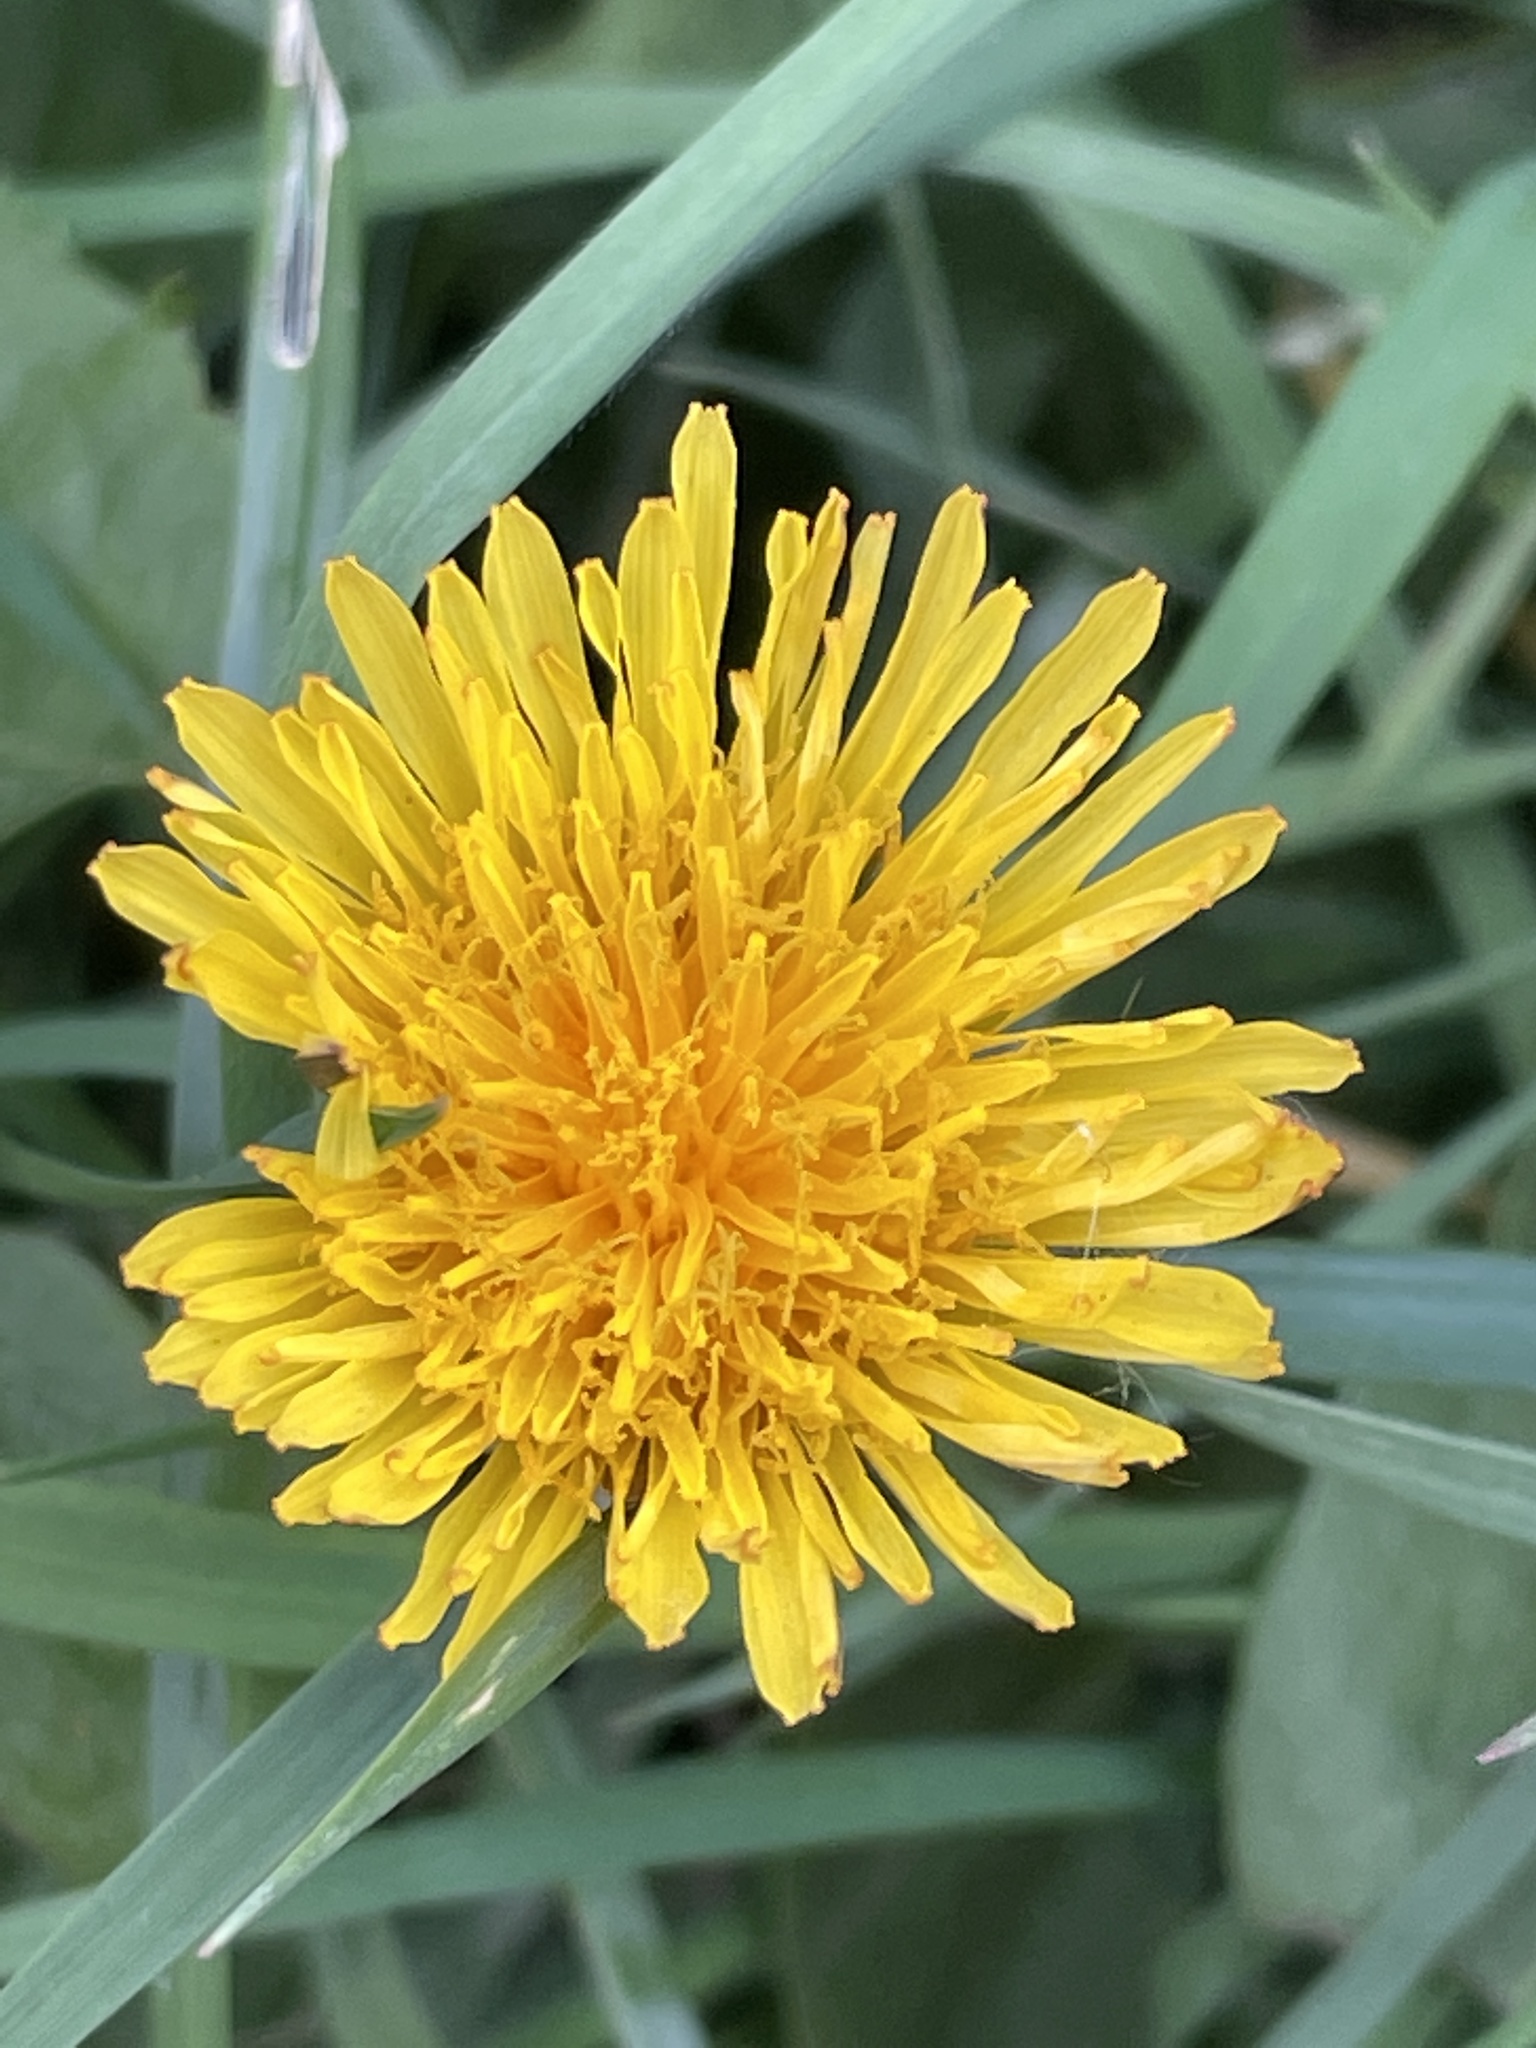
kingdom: Plantae
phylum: Tracheophyta
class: Magnoliopsida
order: Asterales
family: Asteraceae
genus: Taraxacum
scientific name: Taraxacum officinale
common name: Common dandelion
